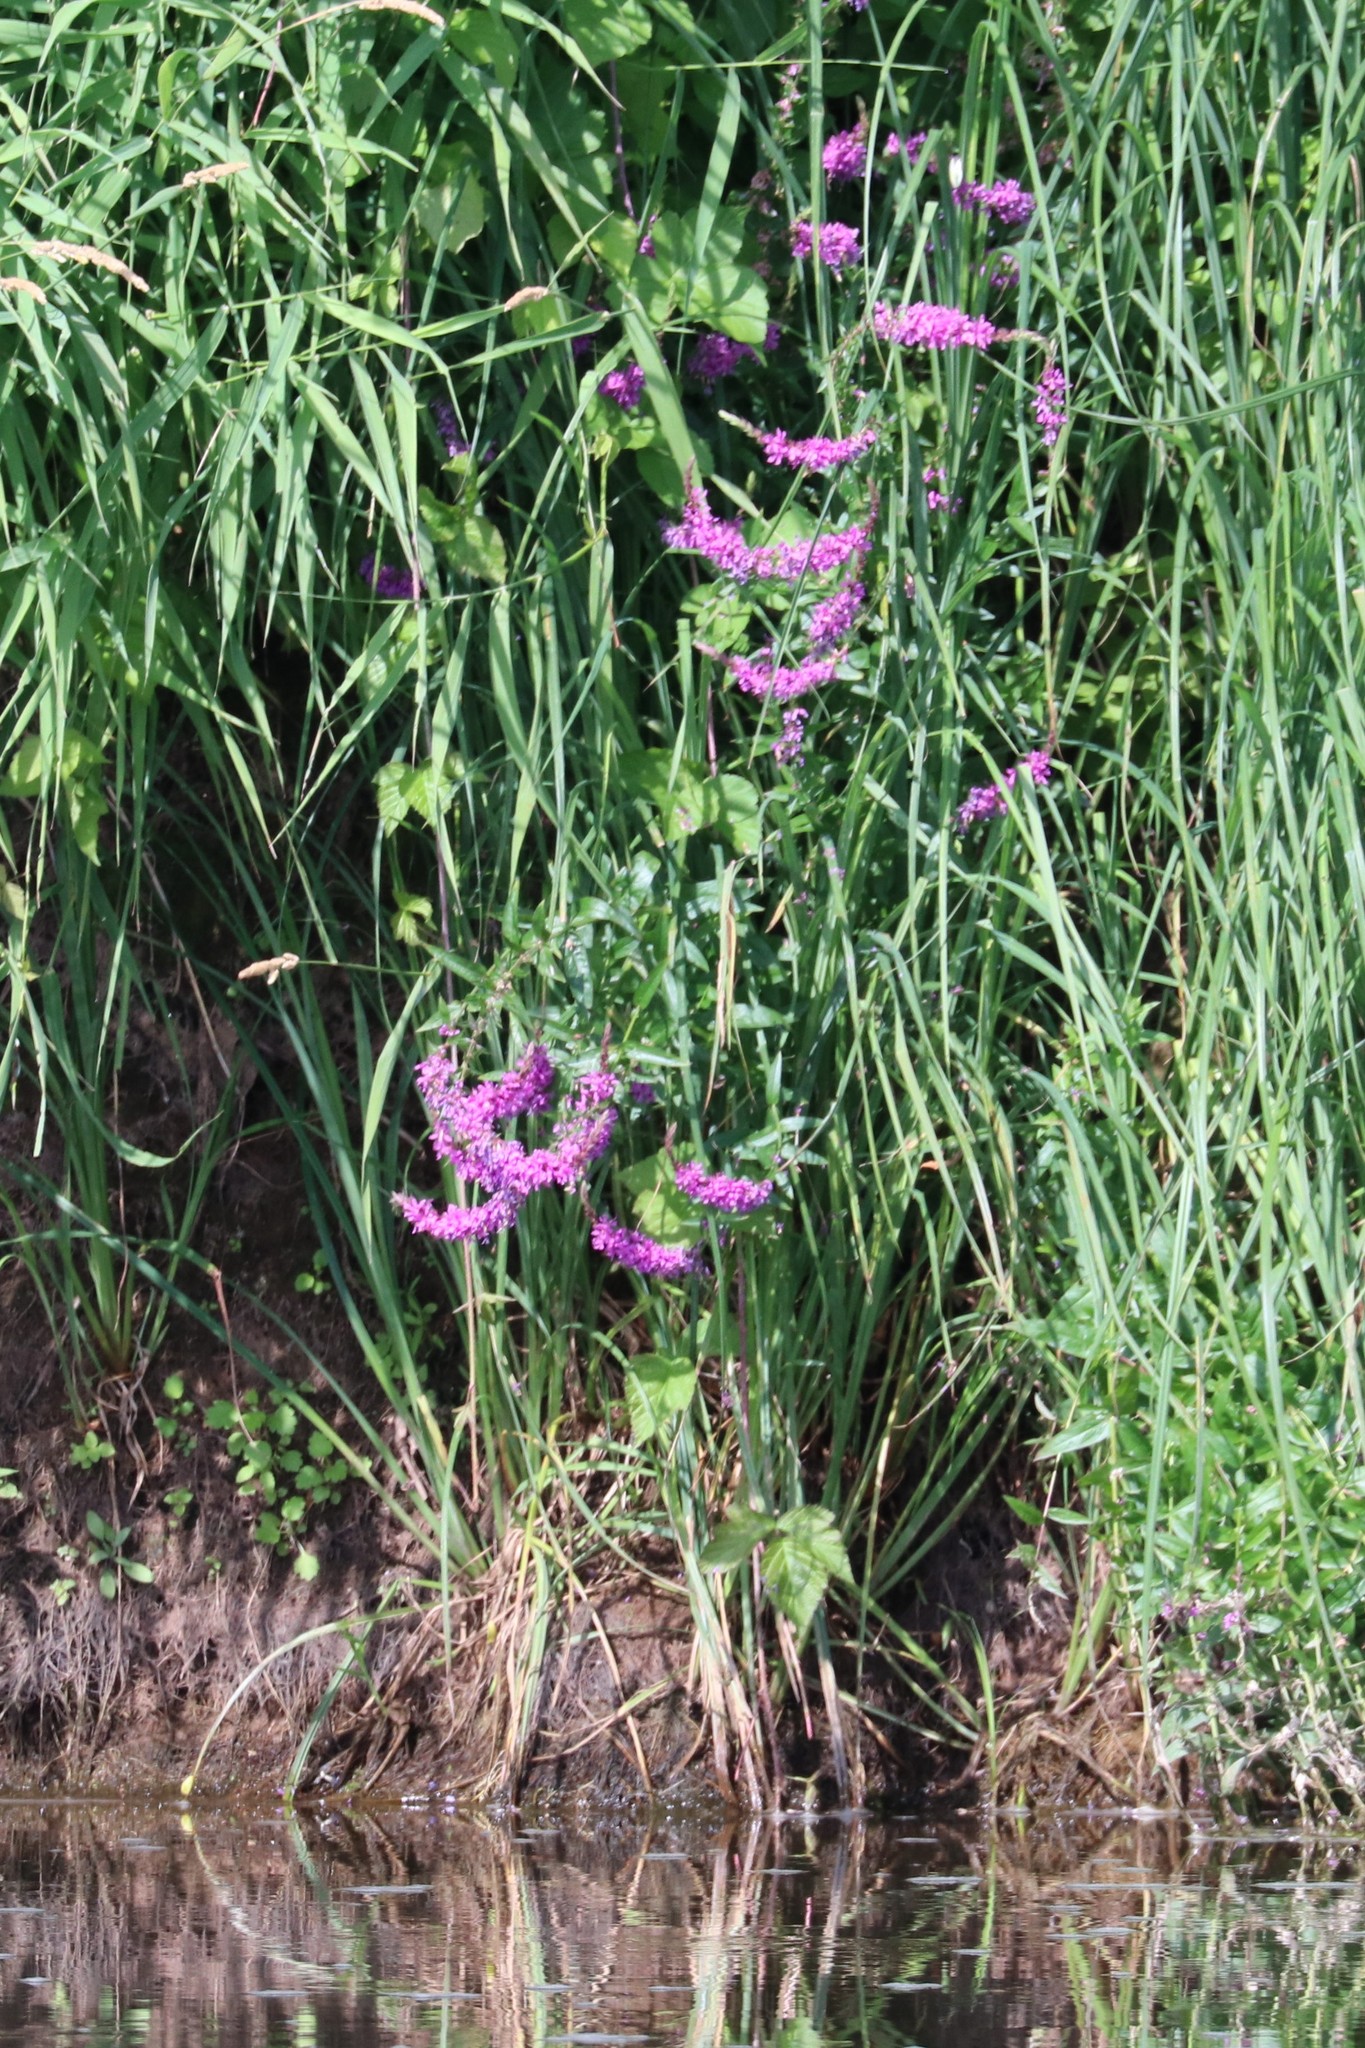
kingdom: Plantae
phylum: Tracheophyta
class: Magnoliopsida
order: Myrtales
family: Lythraceae
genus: Lythrum
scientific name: Lythrum salicaria
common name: Purple loosestrife
